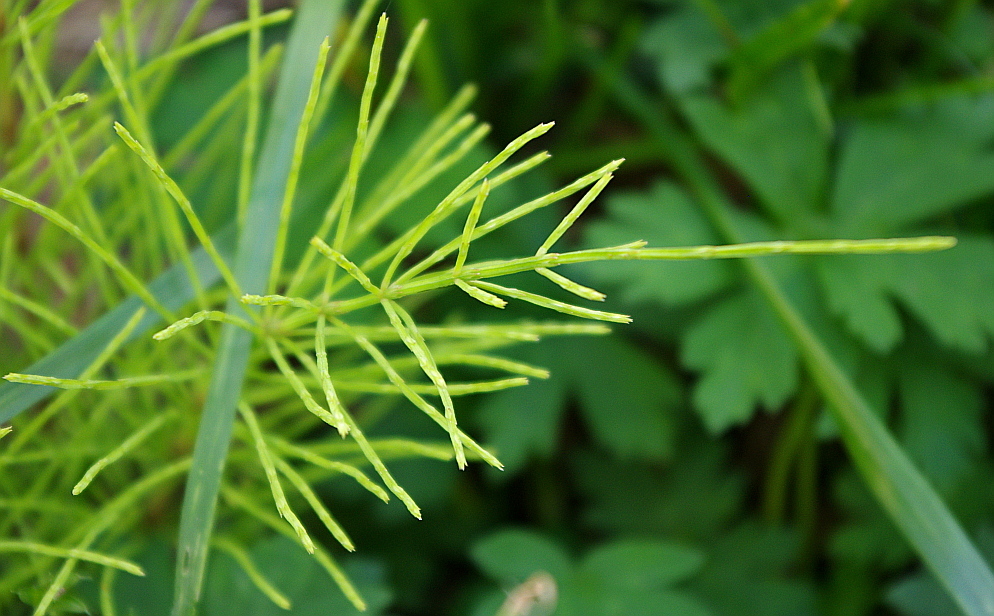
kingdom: Plantae
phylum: Tracheophyta
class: Polypodiopsida
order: Equisetales
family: Equisetaceae
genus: Equisetum
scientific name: Equisetum arvense
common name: Field horsetail
